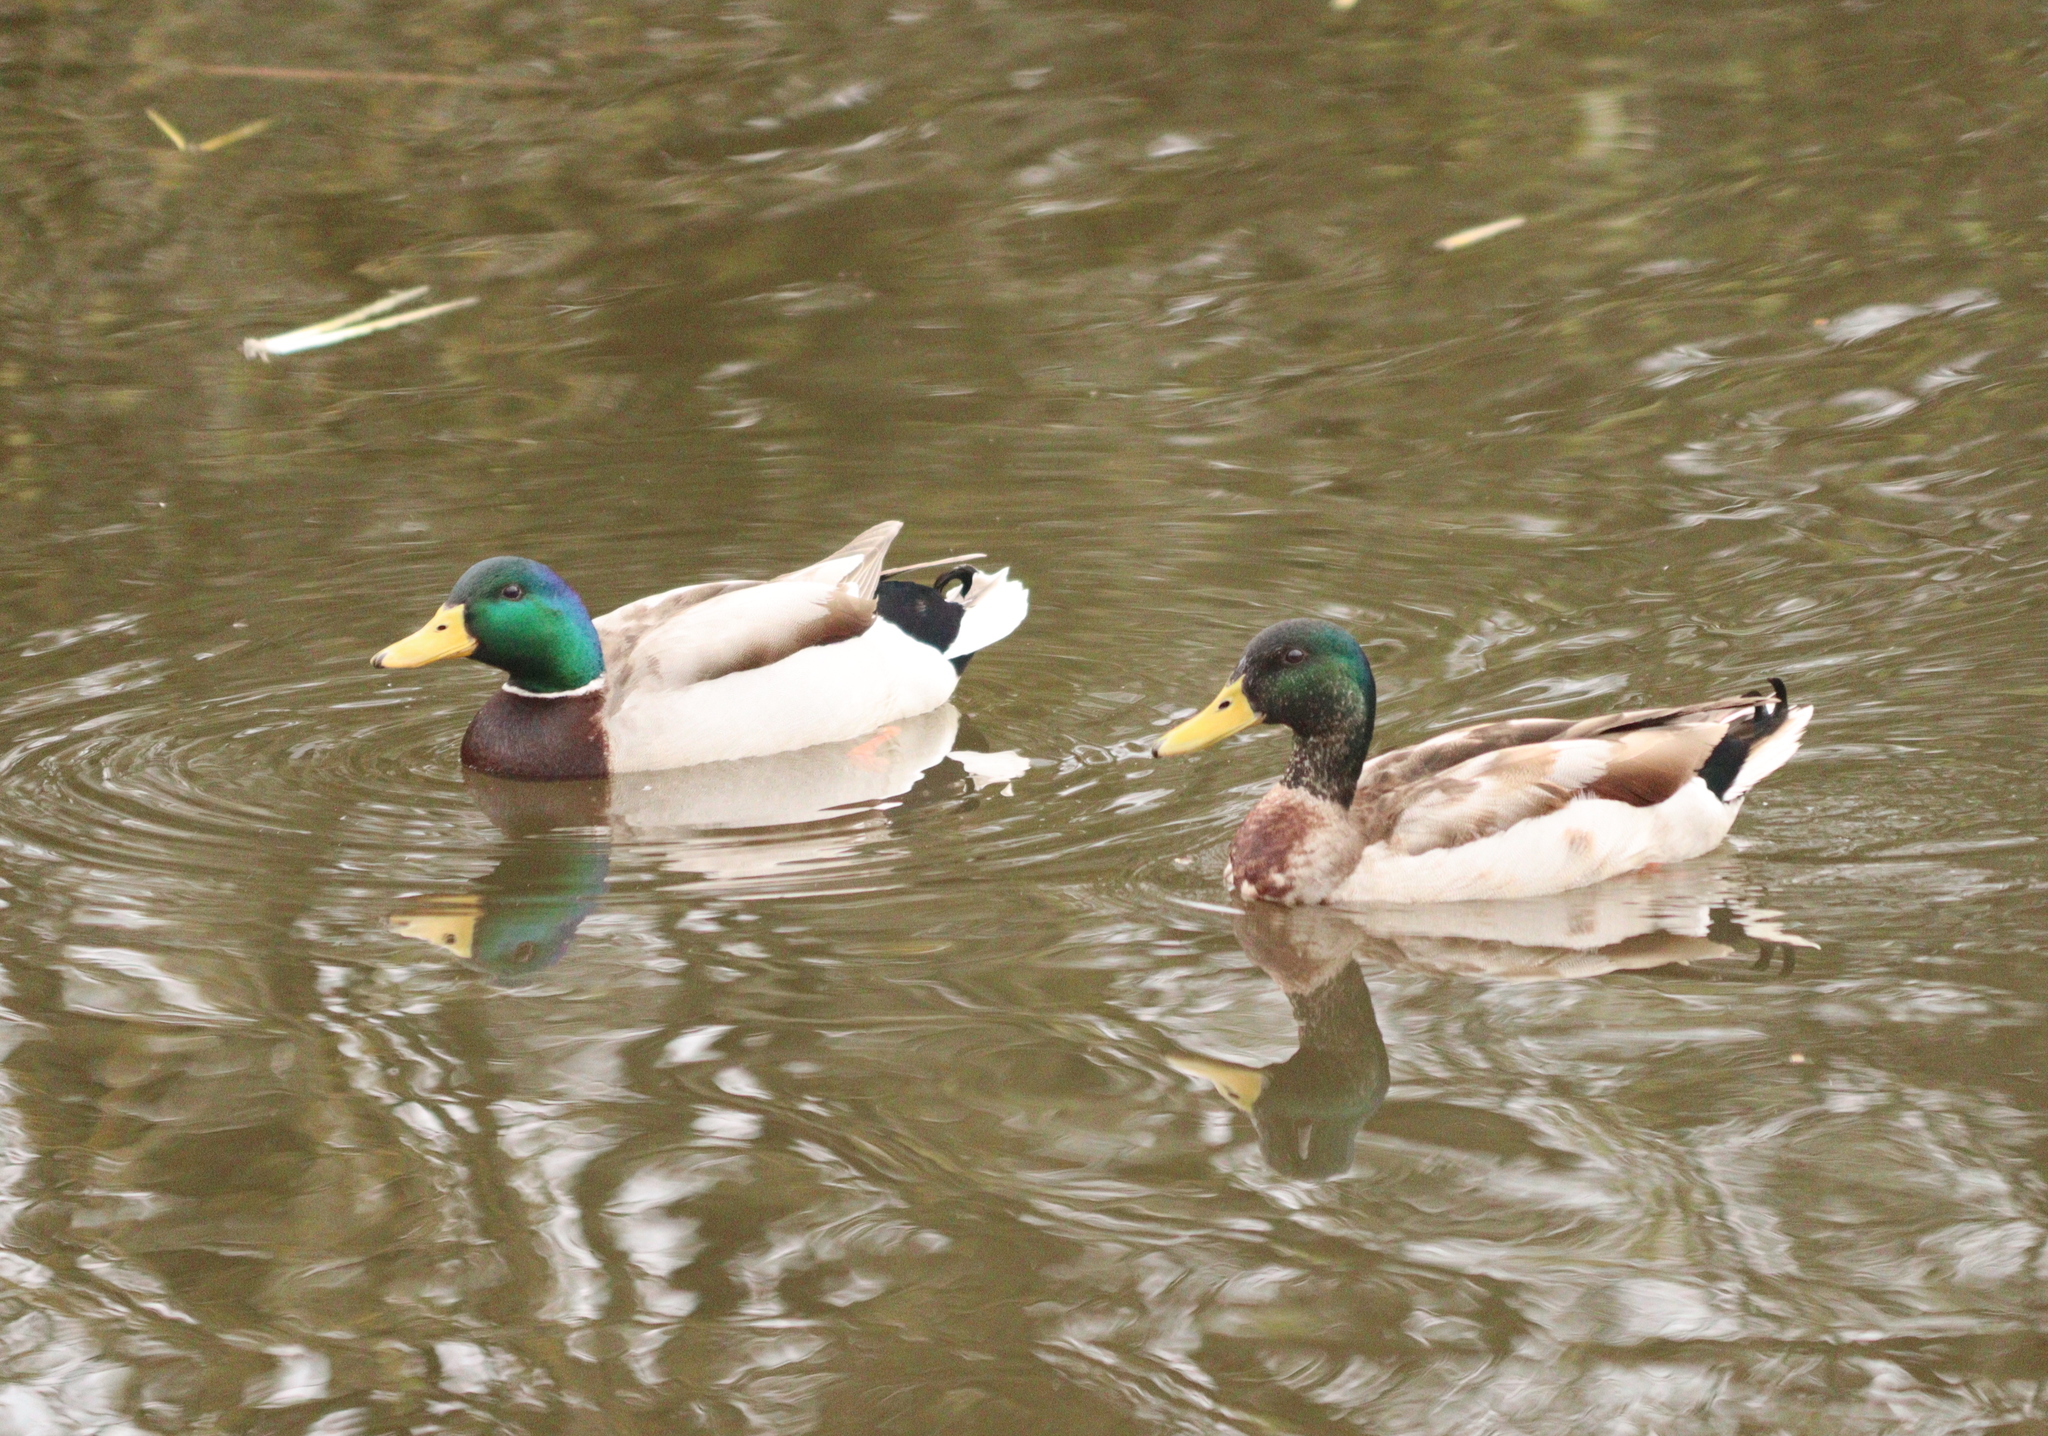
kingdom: Animalia
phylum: Chordata
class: Aves
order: Anseriformes
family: Anatidae
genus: Anas
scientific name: Anas platyrhynchos
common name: Mallard
